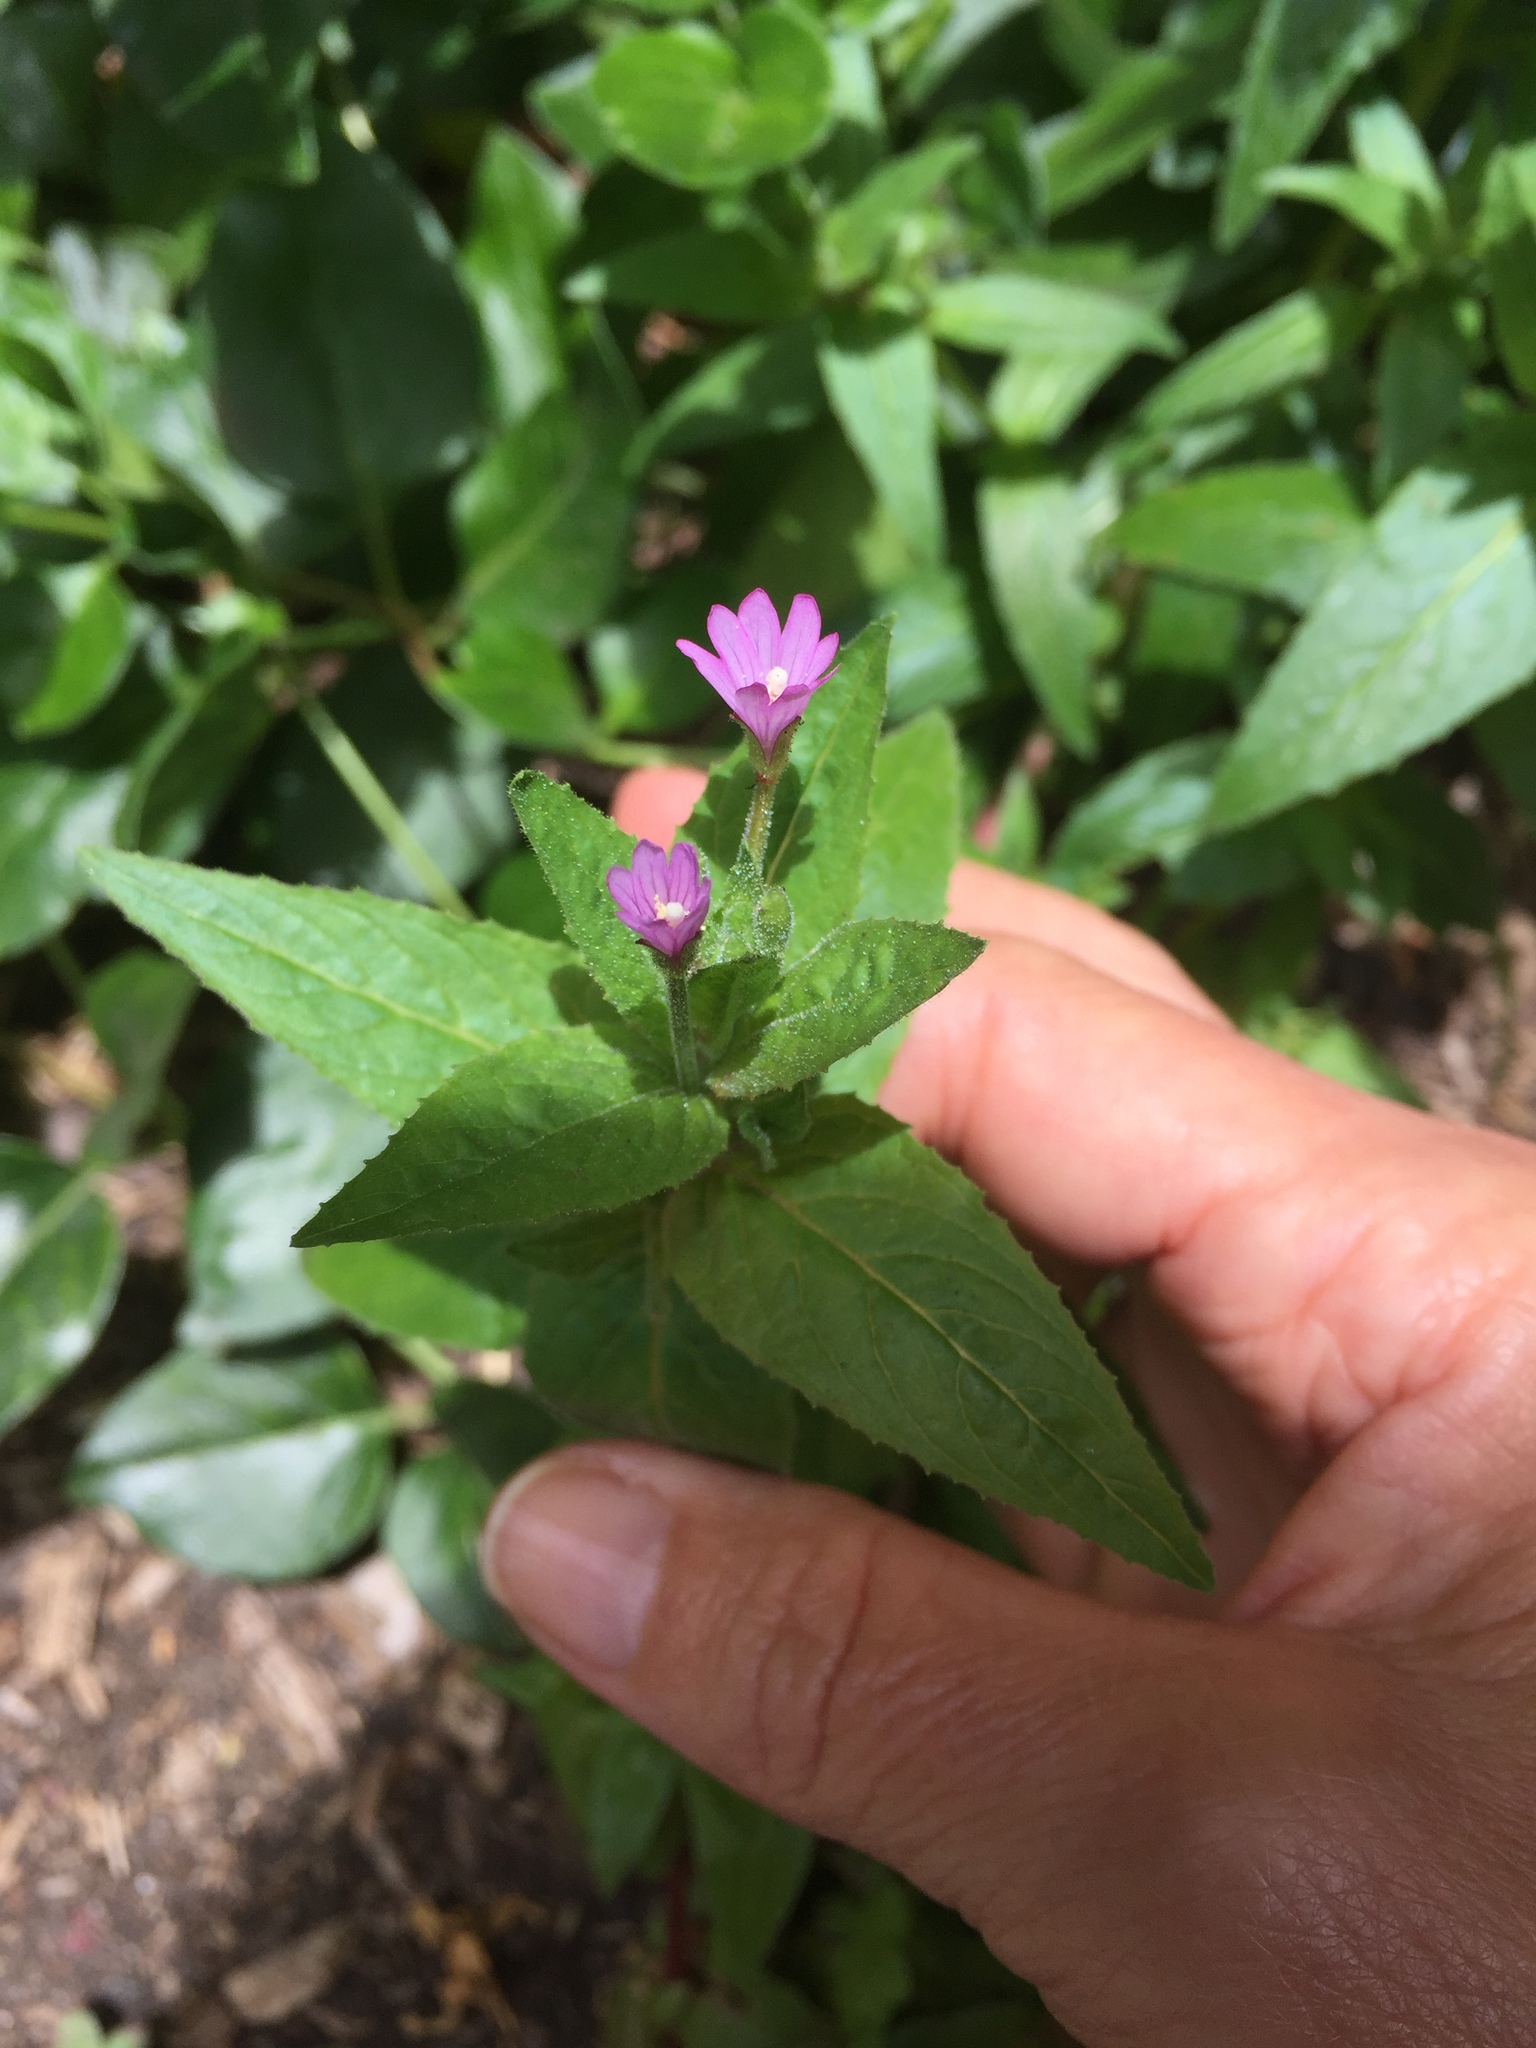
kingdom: Plantae
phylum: Tracheophyta
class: Magnoliopsida
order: Myrtales
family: Onagraceae
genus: Epilobium
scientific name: Epilobium ciliatum
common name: American willowherb
